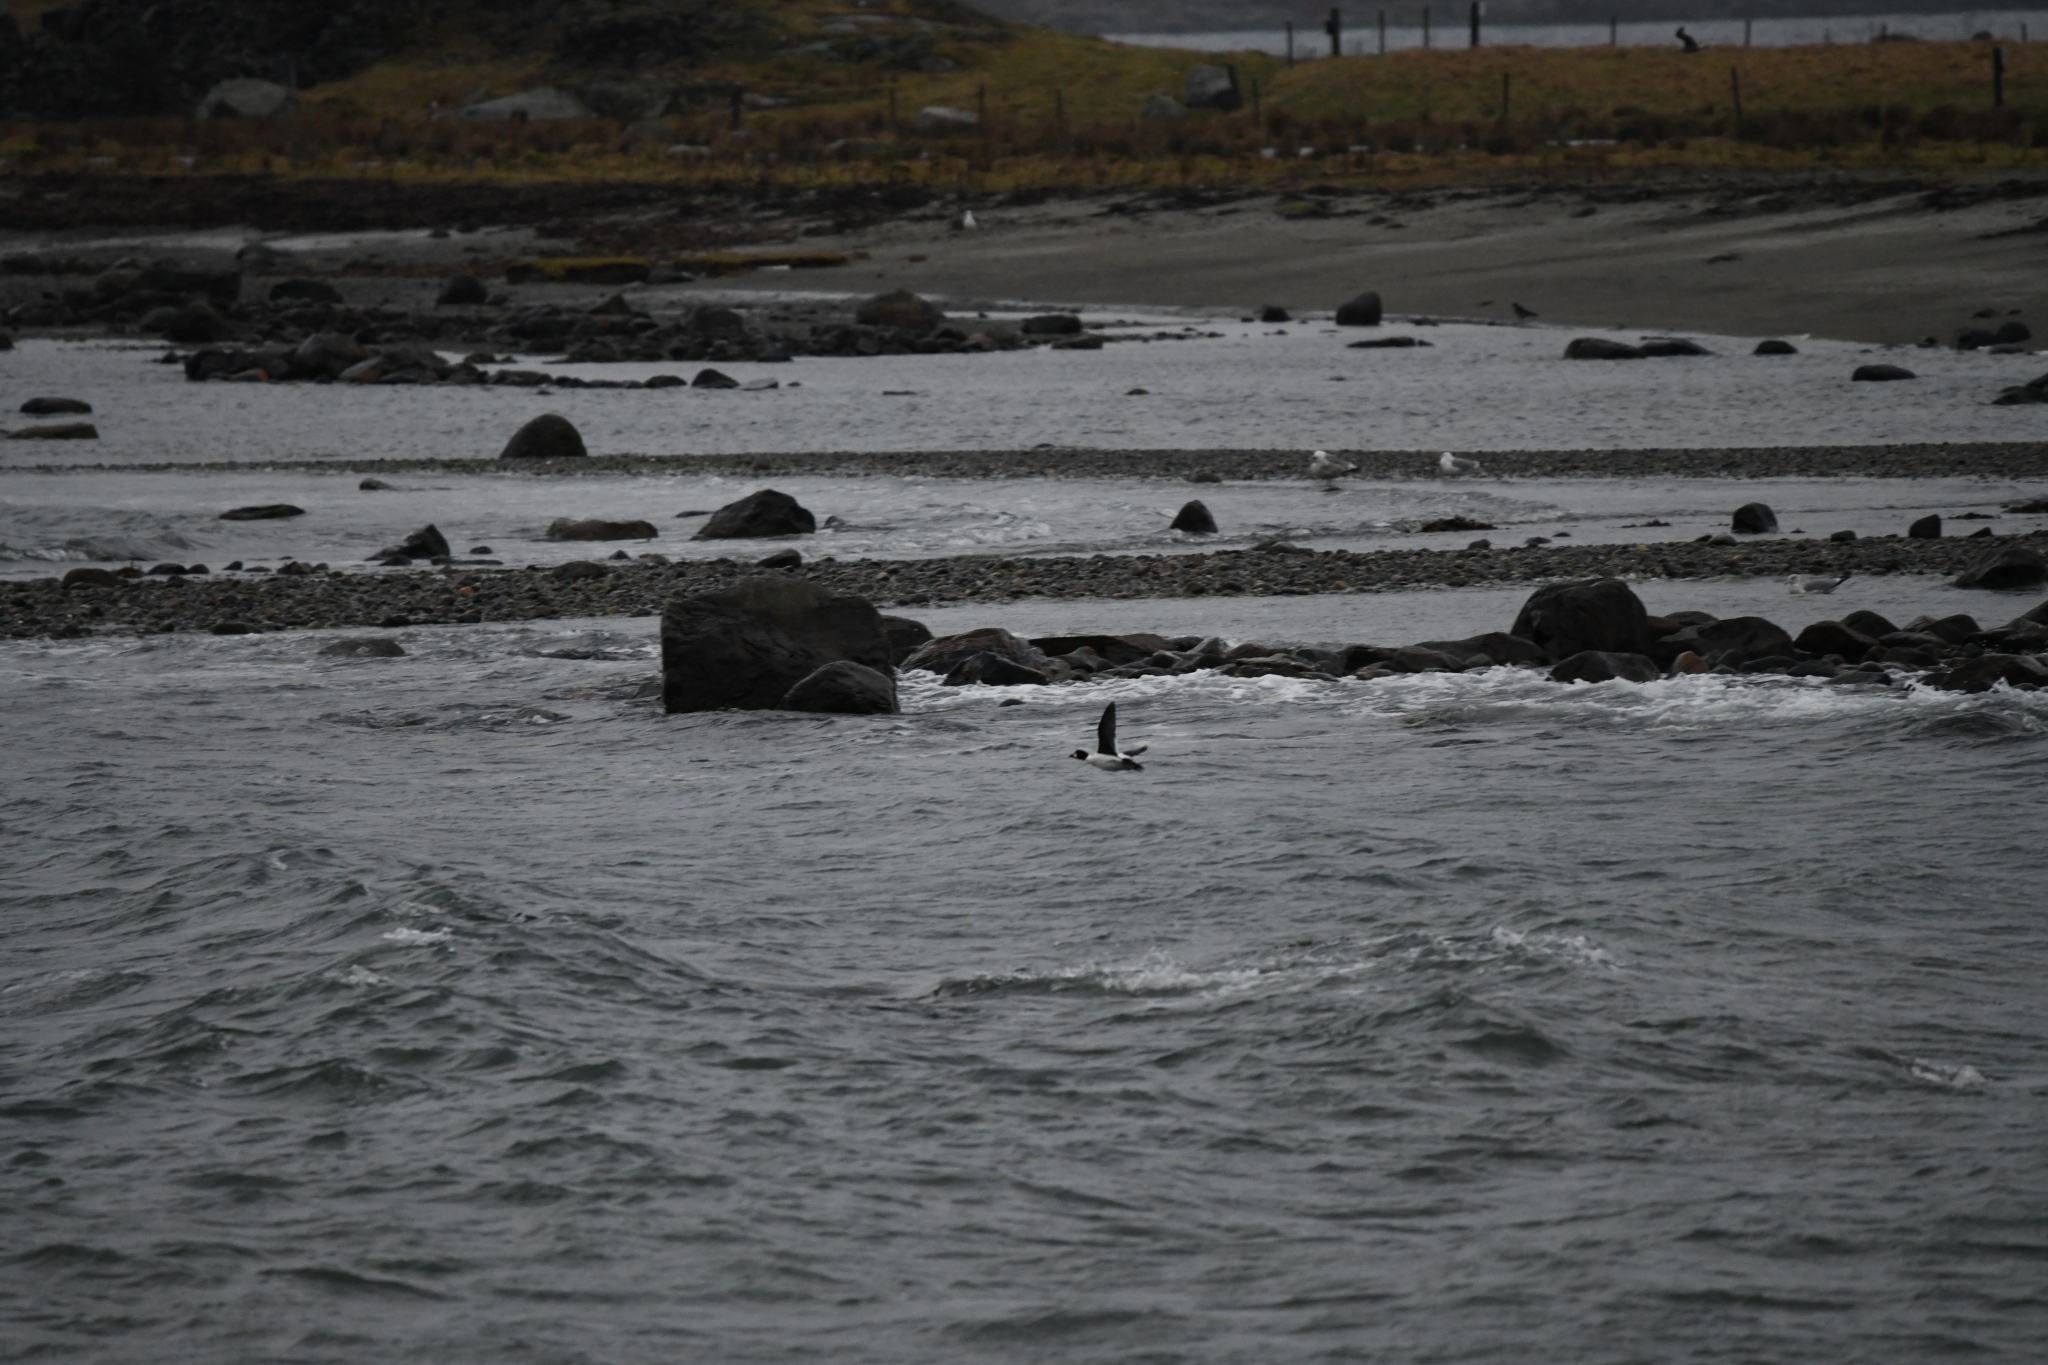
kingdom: Animalia
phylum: Chordata
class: Aves
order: Anseriformes
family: Anatidae
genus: Bucephala
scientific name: Bucephala clangula
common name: Common goldeneye
